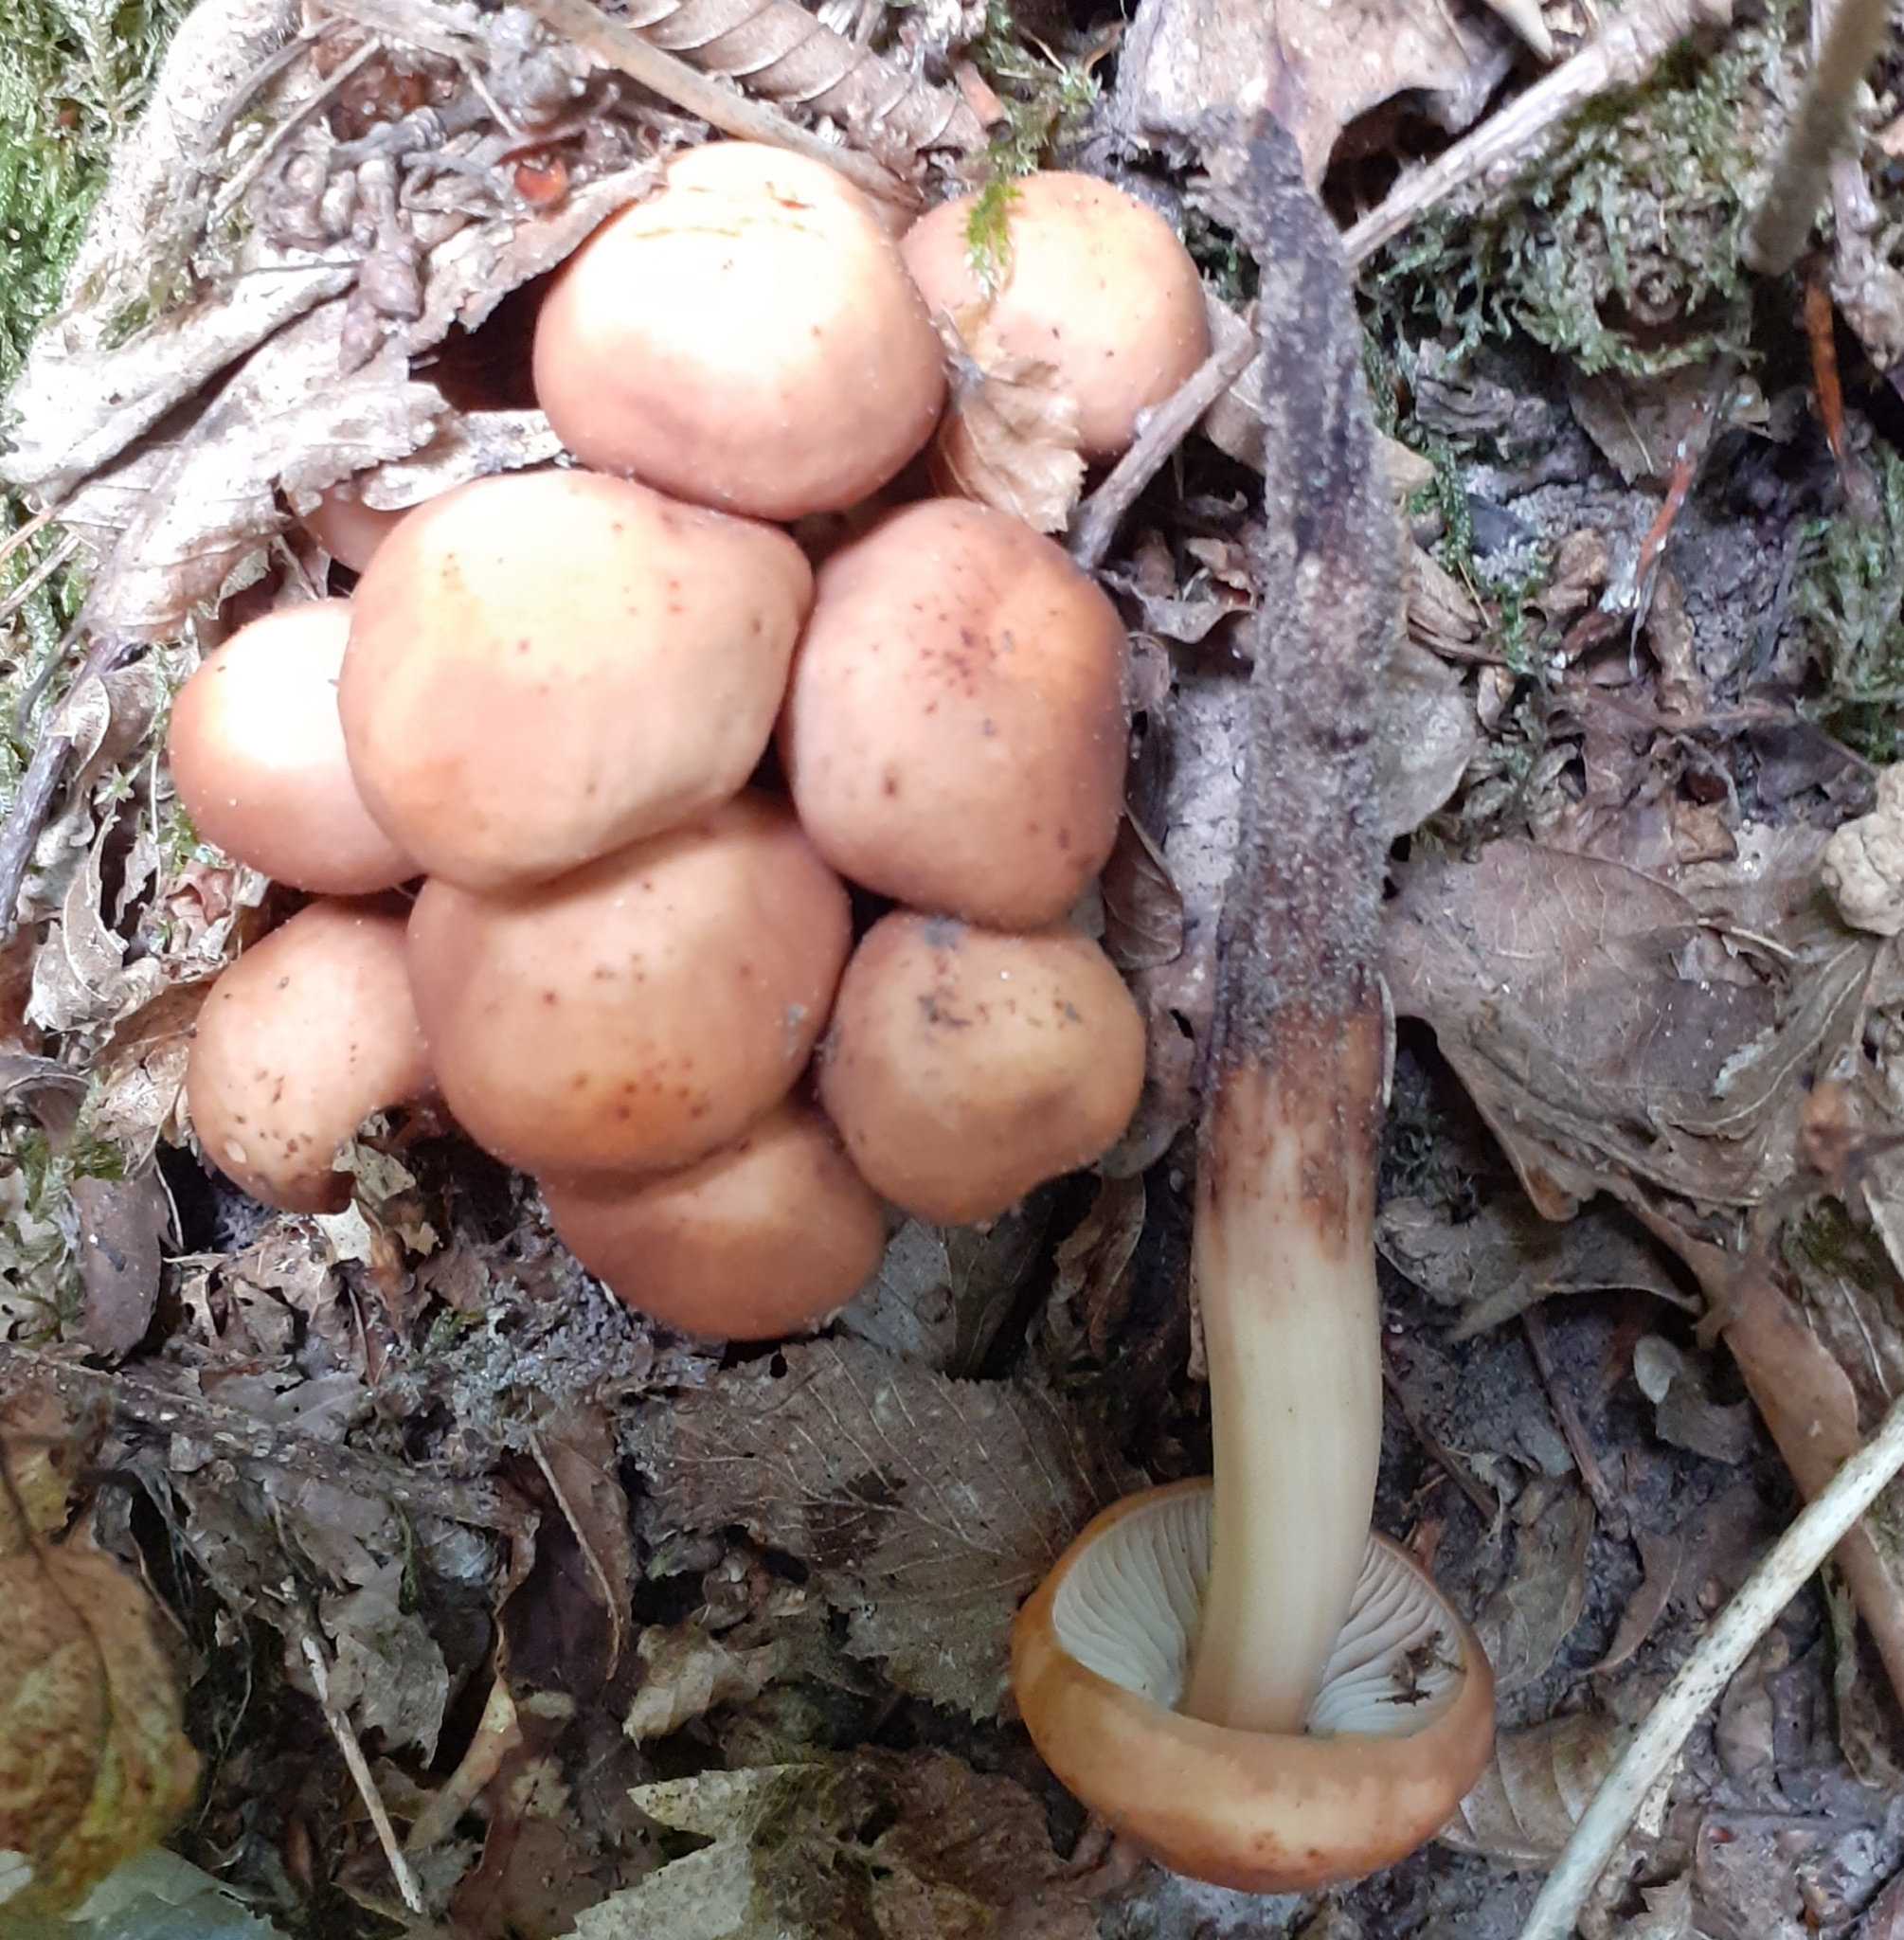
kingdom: Fungi
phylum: Basidiomycota
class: Agaricomycetes
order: Agaricales
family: Omphalotaceae
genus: Gymnopus
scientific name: Gymnopus fusipes
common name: Spindle shank
